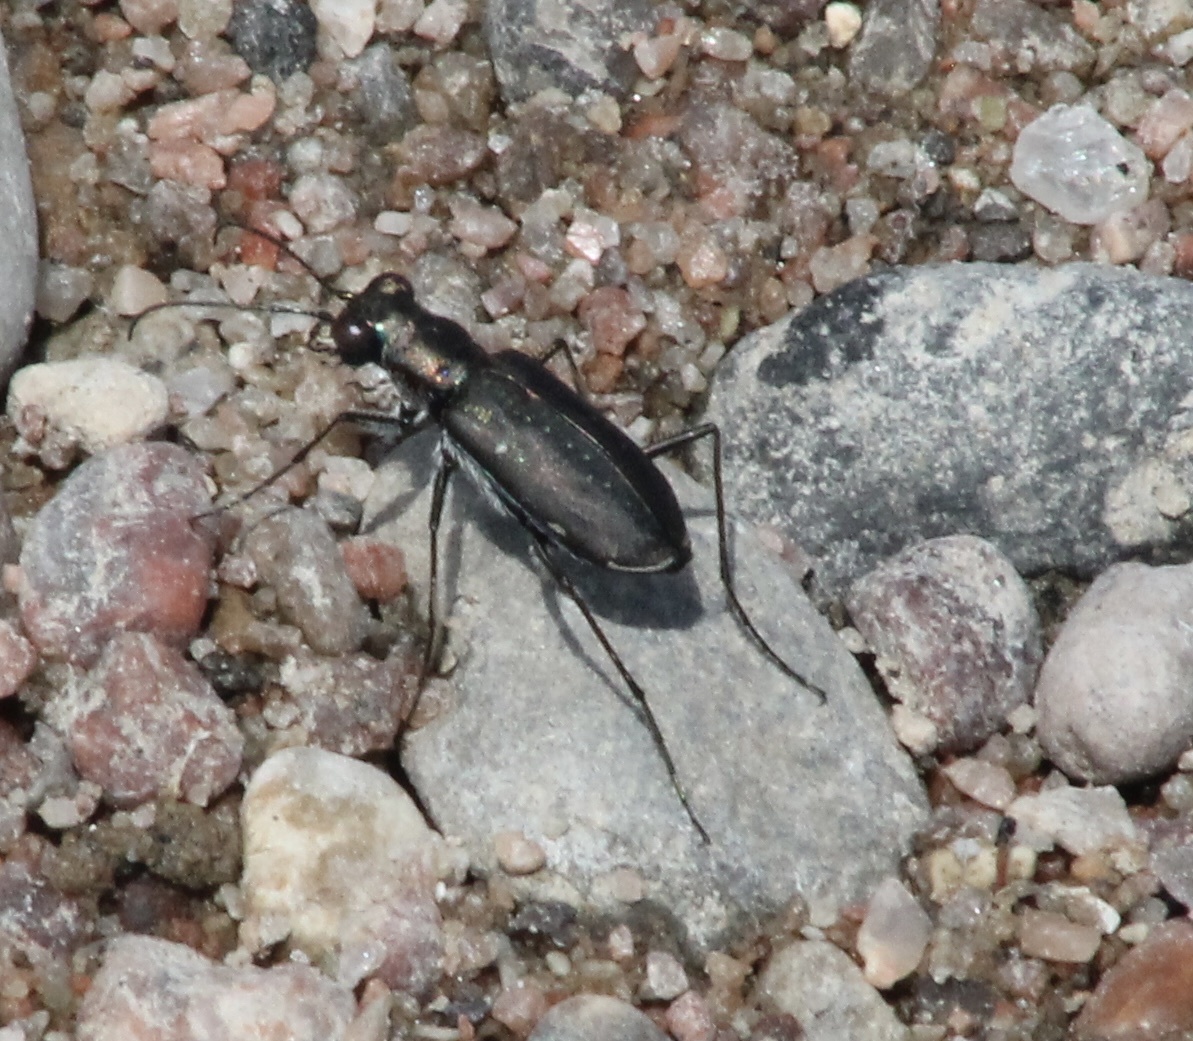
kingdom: Animalia
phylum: Arthropoda
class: Insecta
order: Coleoptera
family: Carabidae
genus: Cicindela
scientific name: Cicindela punctulata
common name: Punctured tiger beetle
